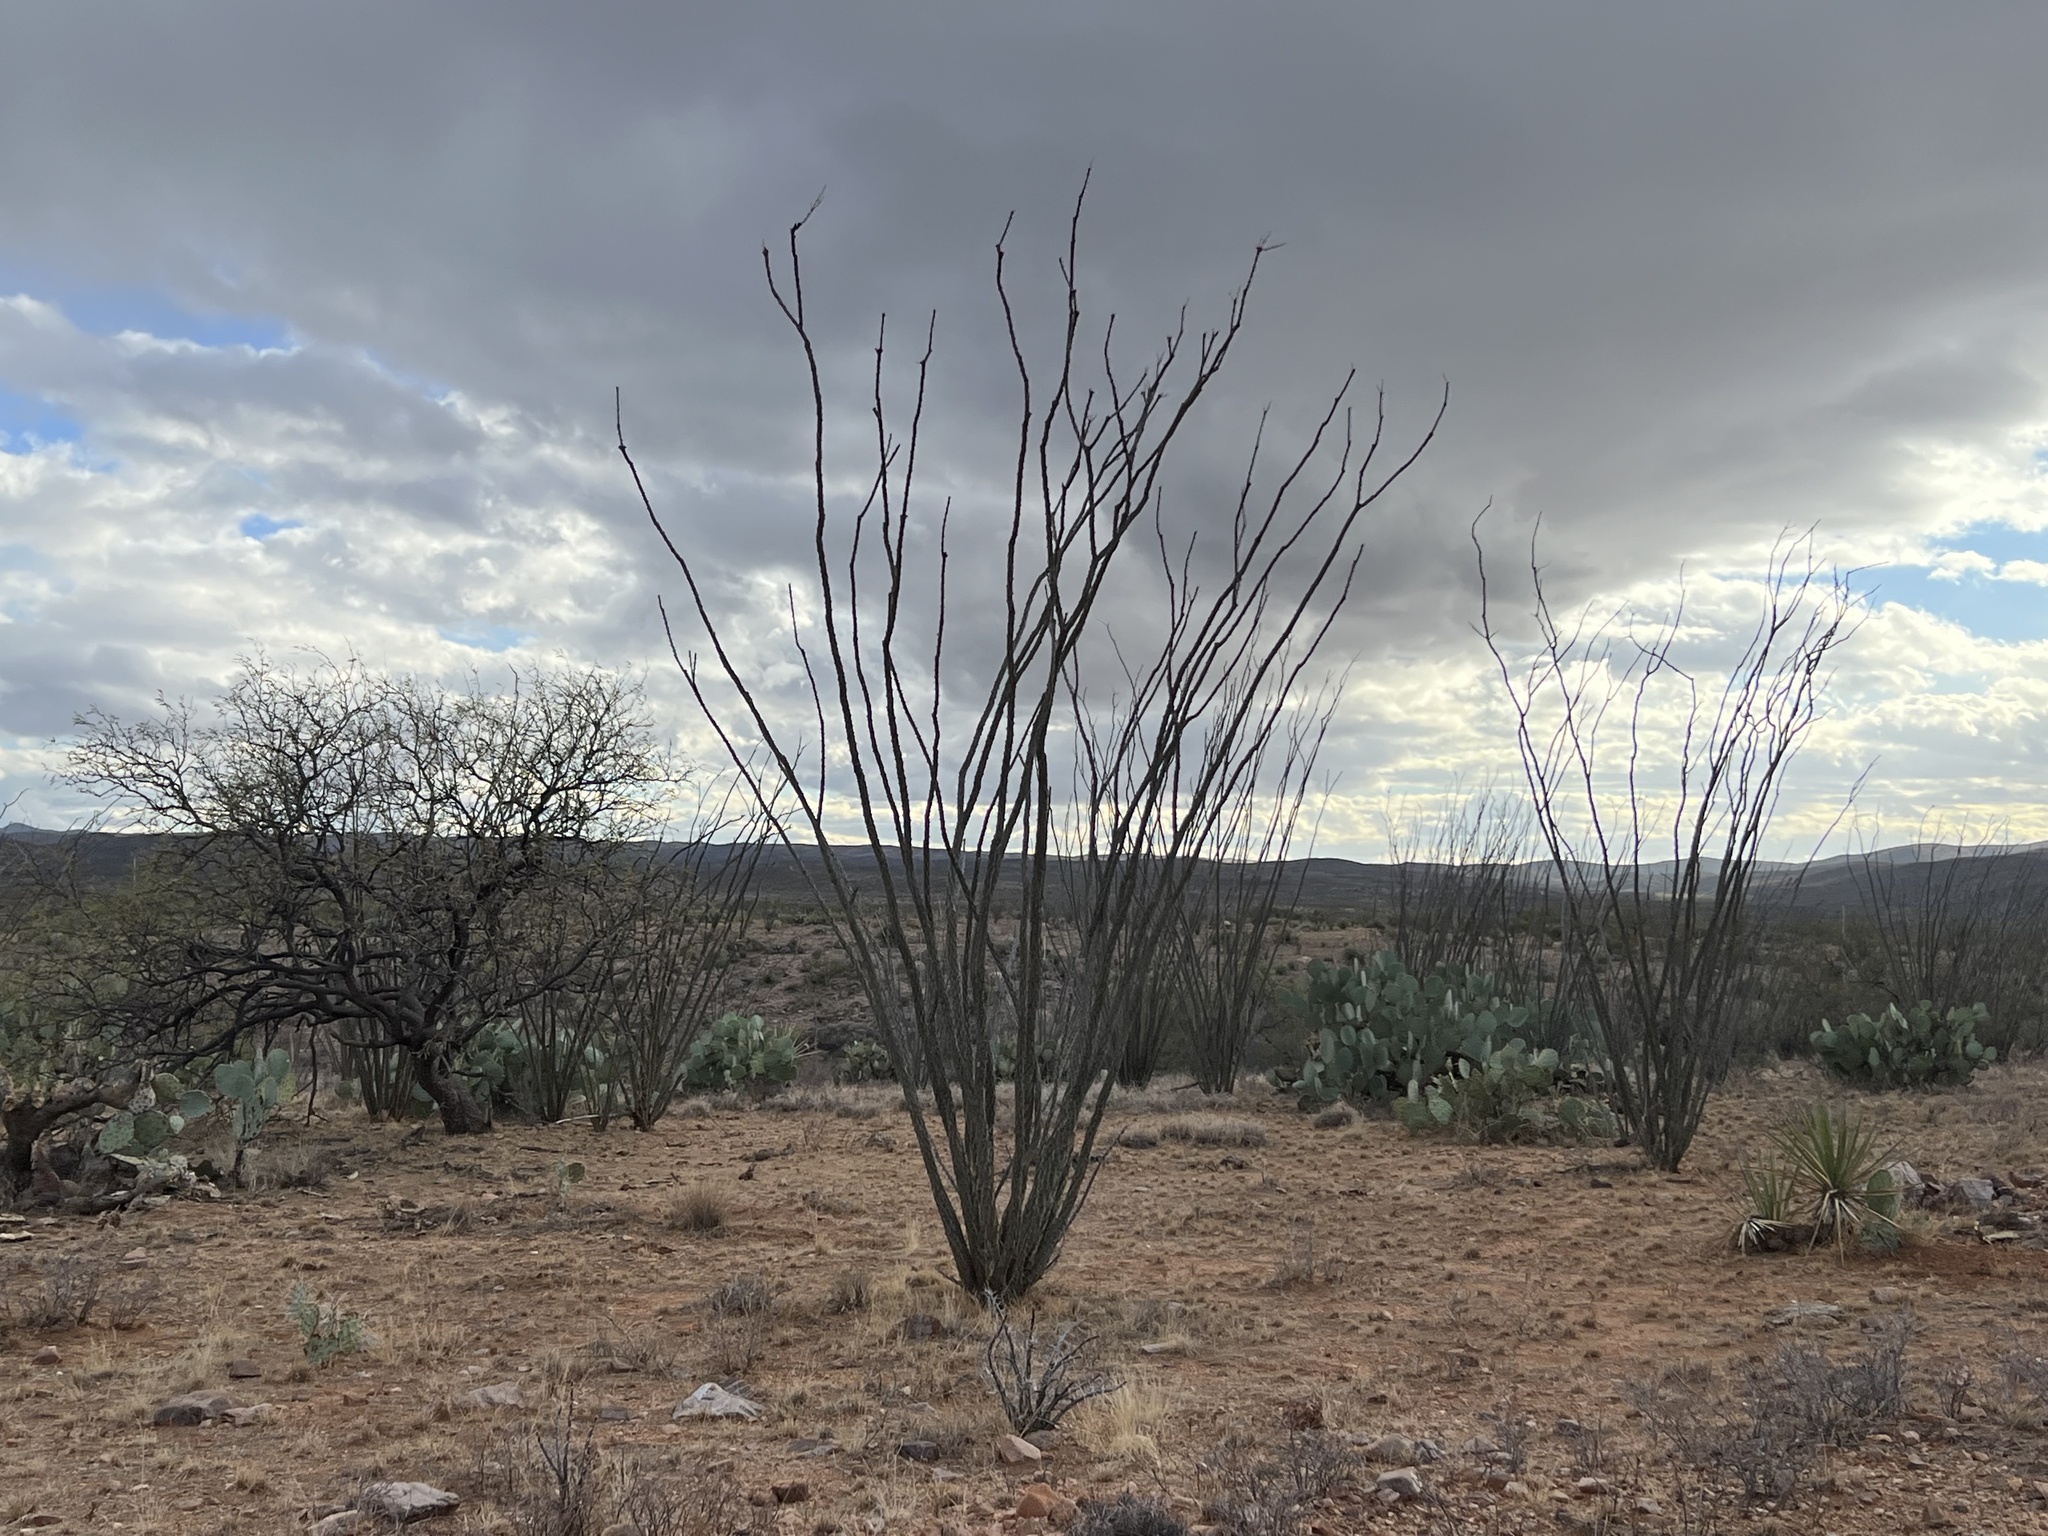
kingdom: Plantae
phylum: Tracheophyta
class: Magnoliopsida
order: Ericales
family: Fouquieriaceae
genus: Fouquieria
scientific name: Fouquieria splendens
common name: Vine-cactus
